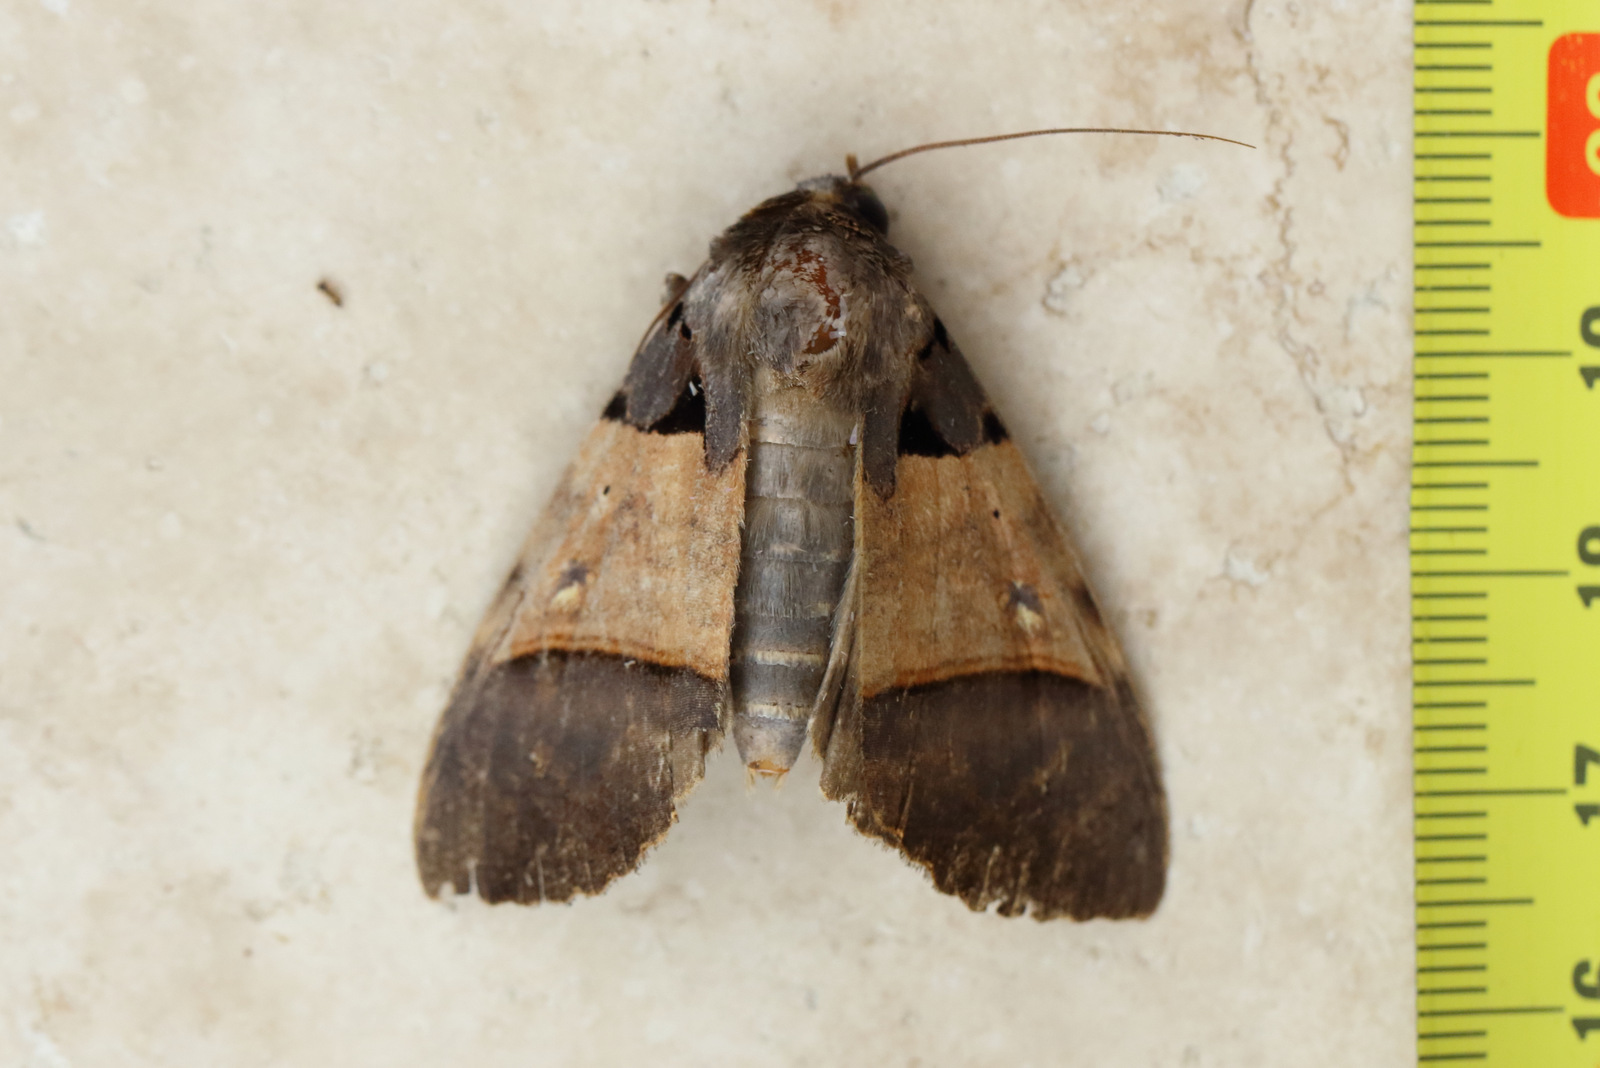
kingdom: Animalia
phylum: Arthropoda
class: Insecta
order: Lepidoptera
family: Erebidae
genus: Serrodes
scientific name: Serrodes mediopallens
